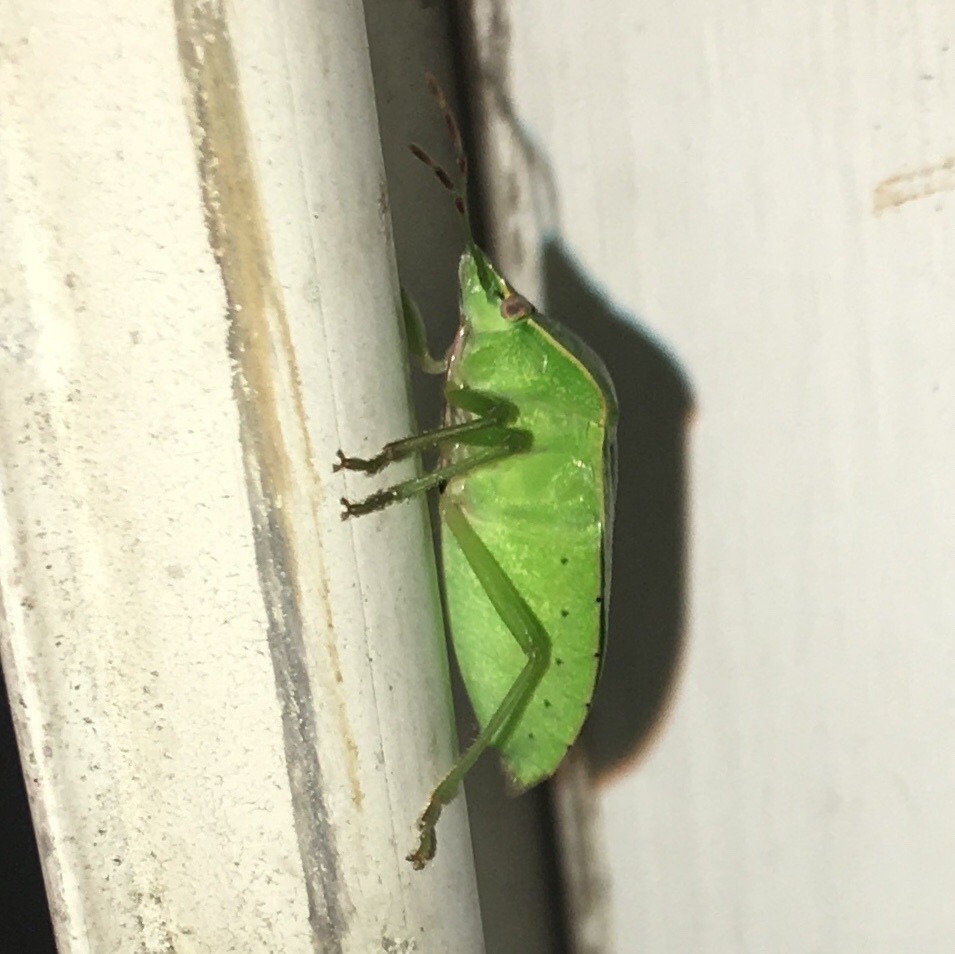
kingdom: Animalia
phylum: Arthropoda
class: Insecta
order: Hemiptera
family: Pentatomidae
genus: Nezara
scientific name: Nezara viridula
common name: Southern green stink bug
